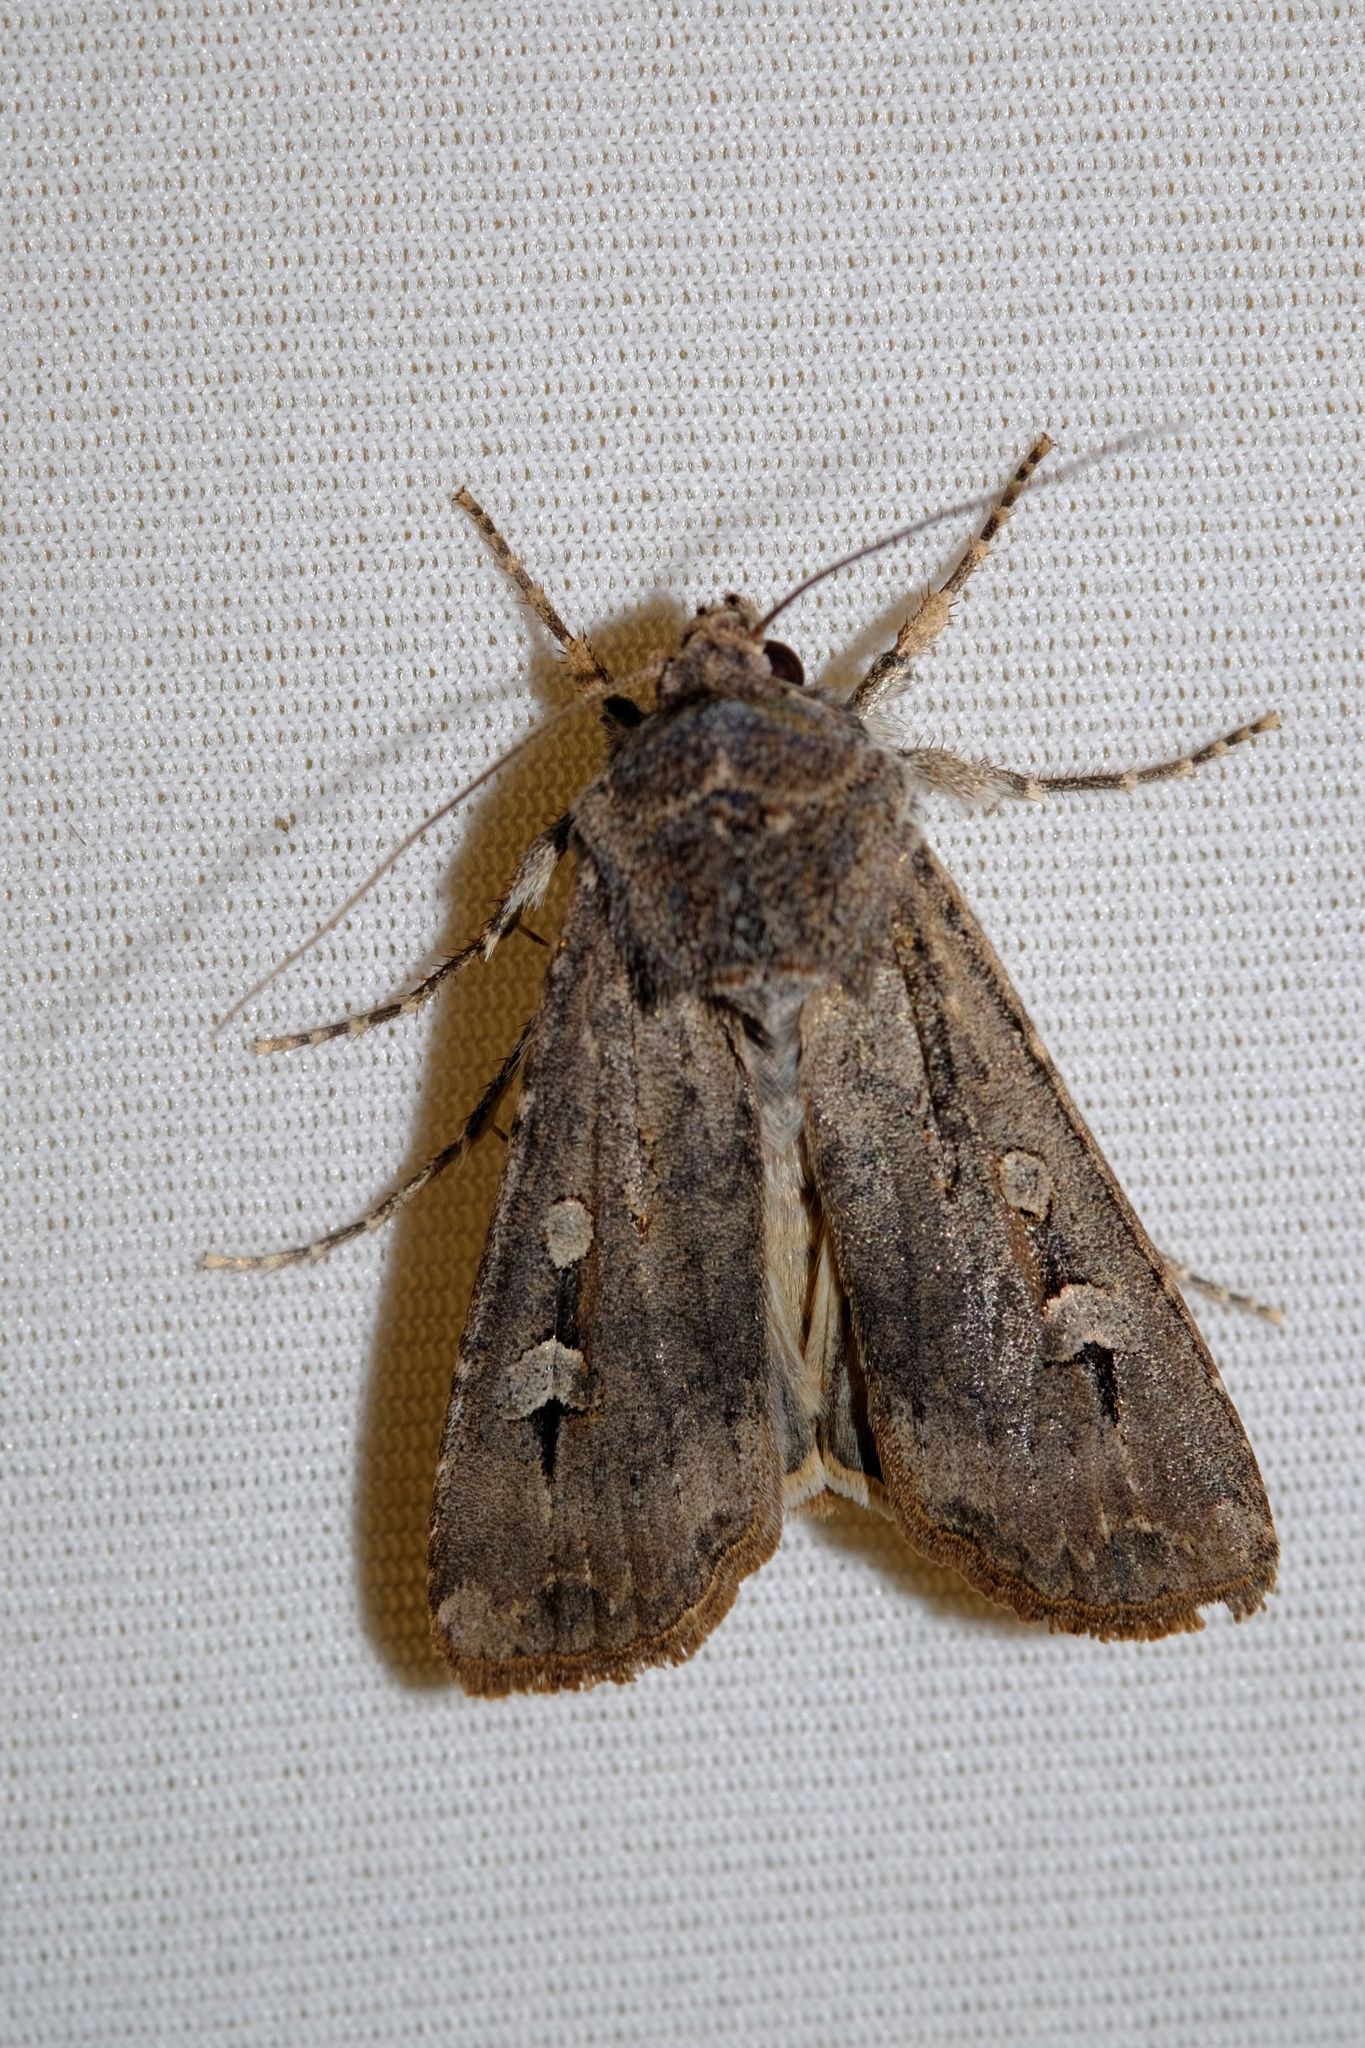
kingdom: Animalia
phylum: Arthropoda
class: Insecta
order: Lepidoptera
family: Noctuidae
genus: Agrotis
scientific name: Agrotis infusa
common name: Bogong moth
